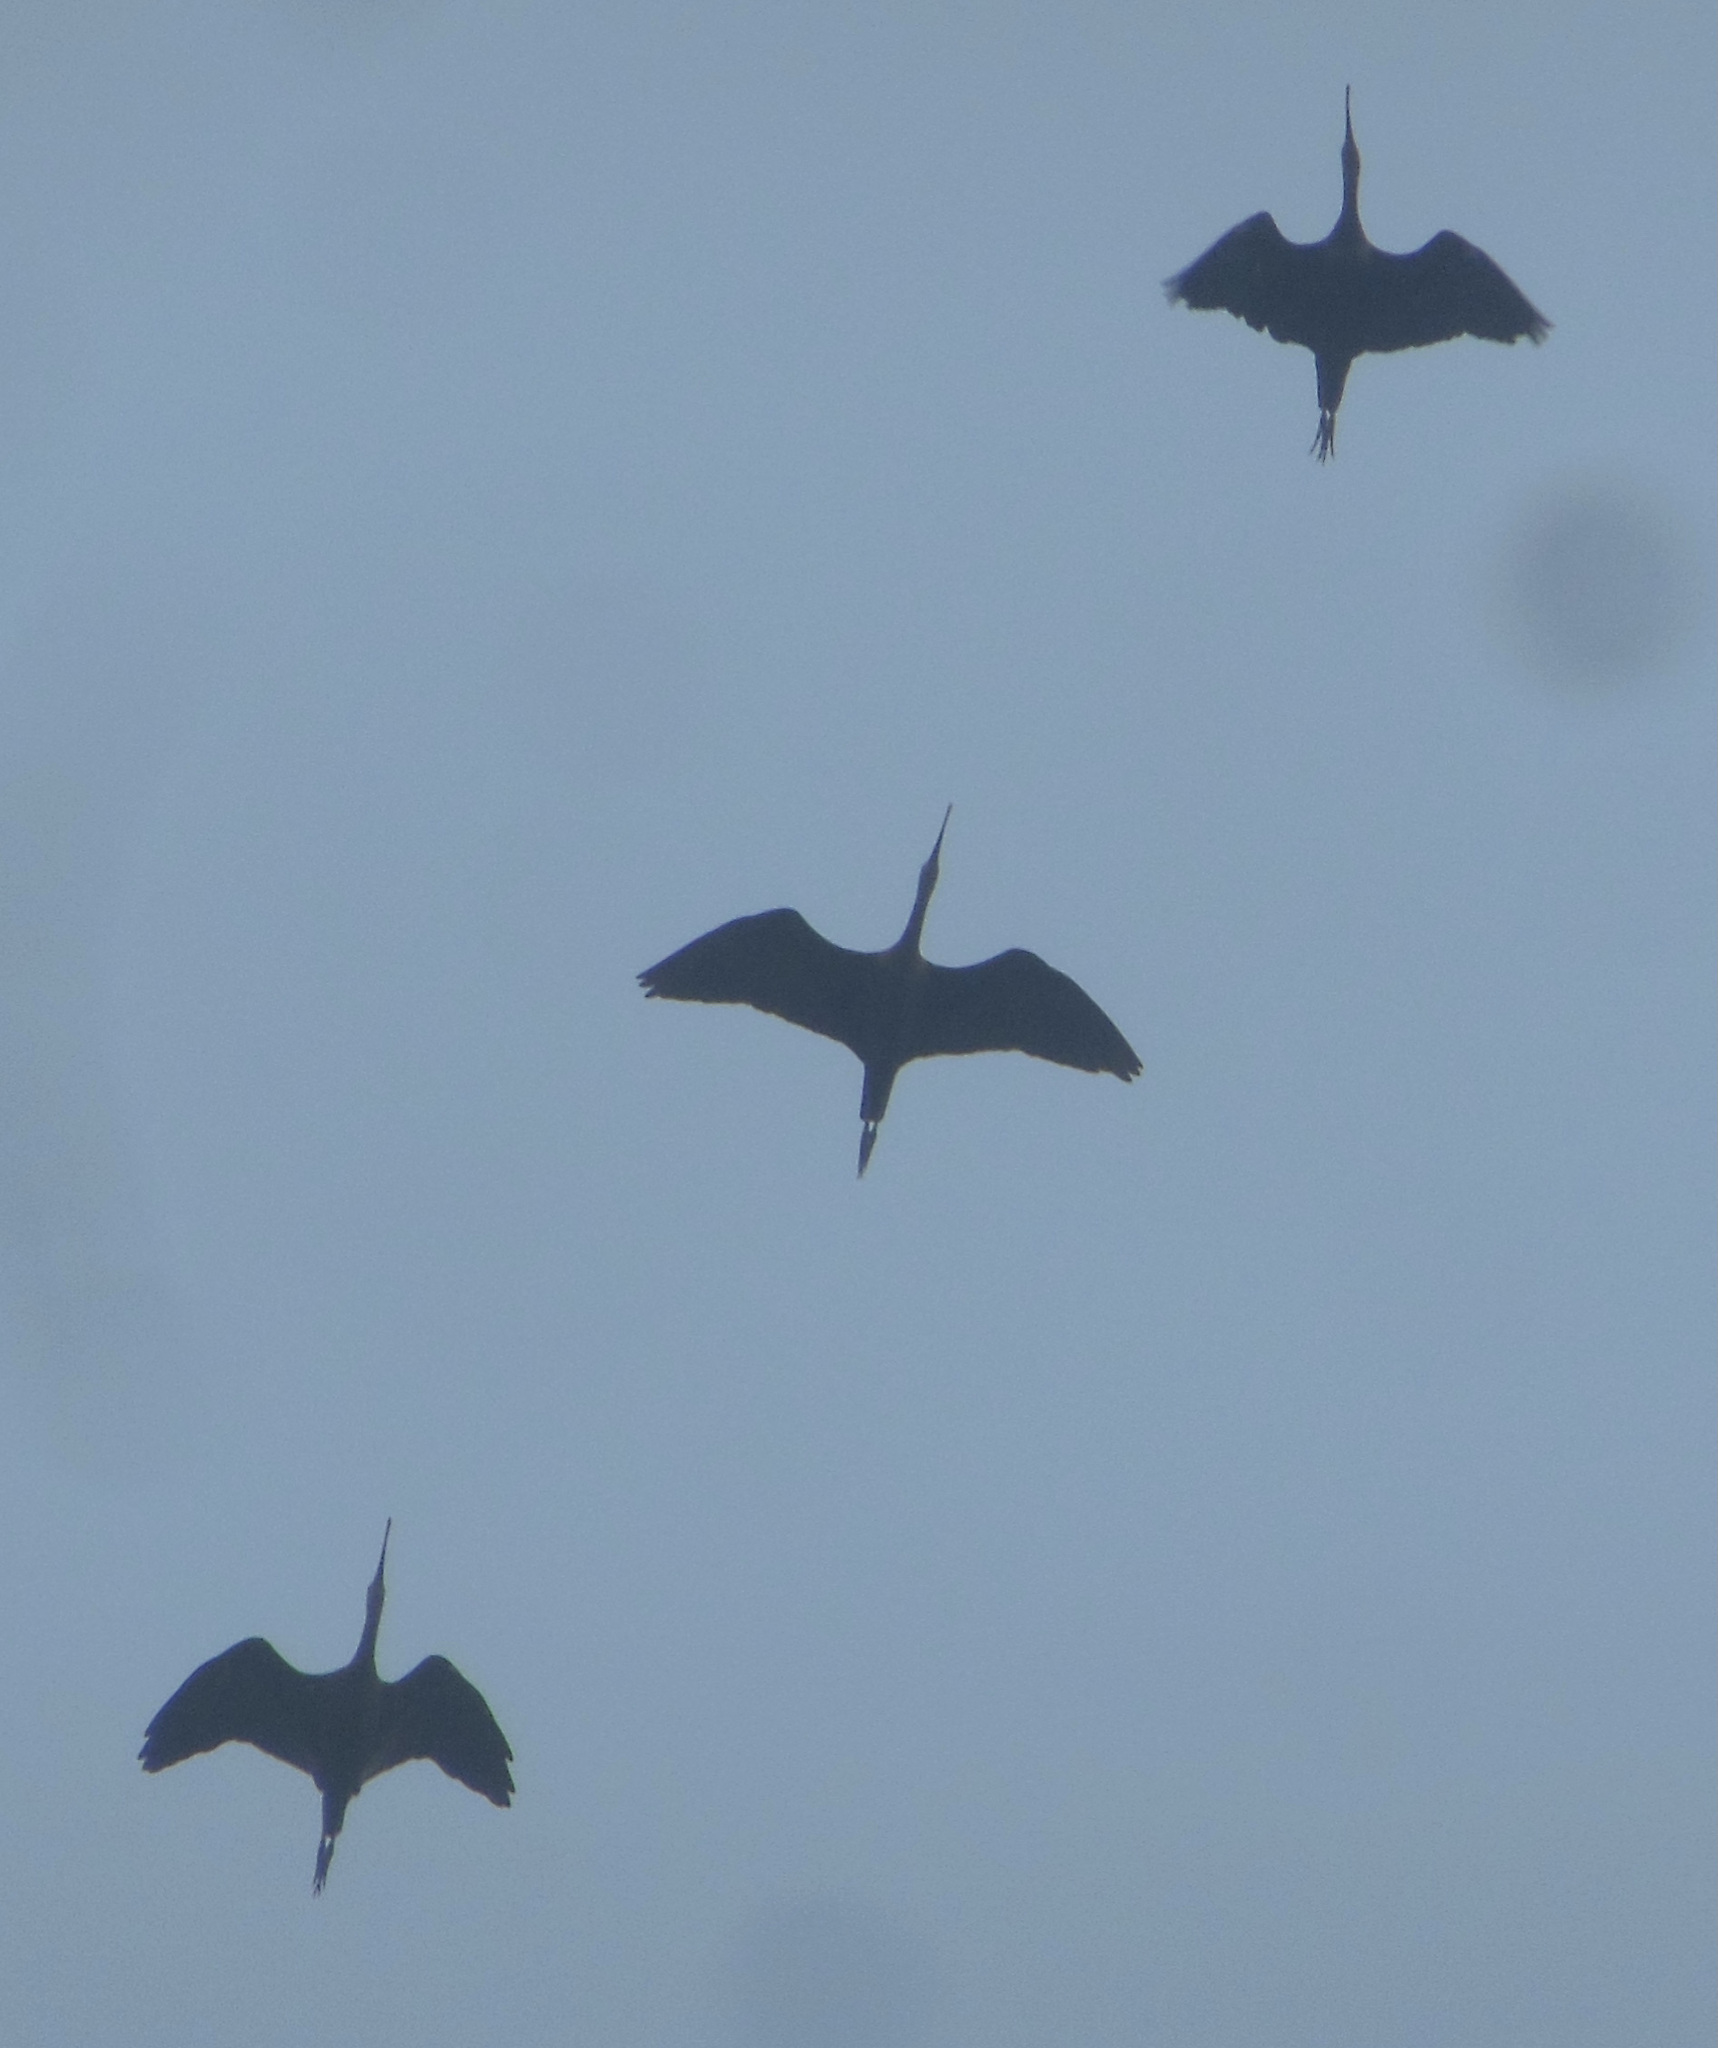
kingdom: Animalia
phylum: Chordata
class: Aves
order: Pelecaniformes
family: Threskiornithidae
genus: Plegadis
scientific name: Plegadis falcinellus
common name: Glossy ibis
